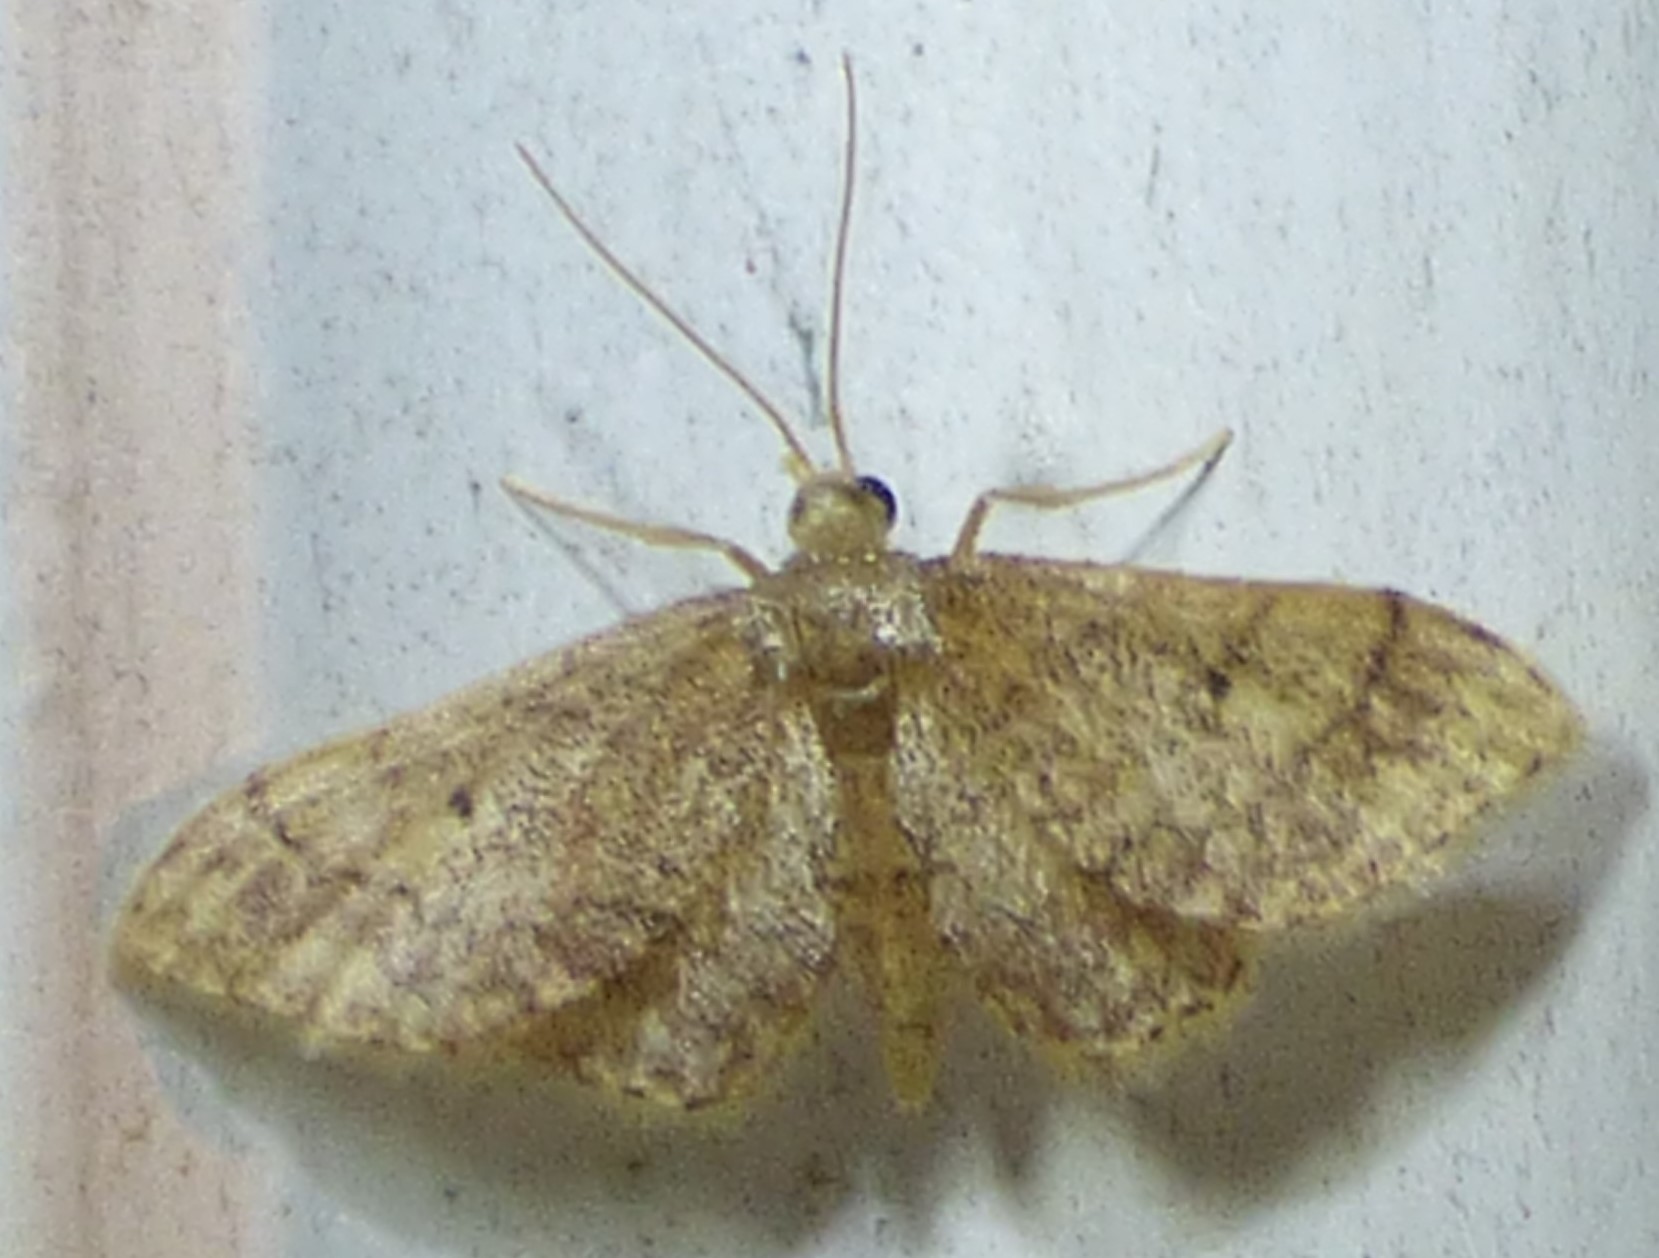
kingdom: Animalia
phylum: Arthropoda
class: Insecta
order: Lepidoptera
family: Geometridae
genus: Idaea
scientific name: Idaea celtima
